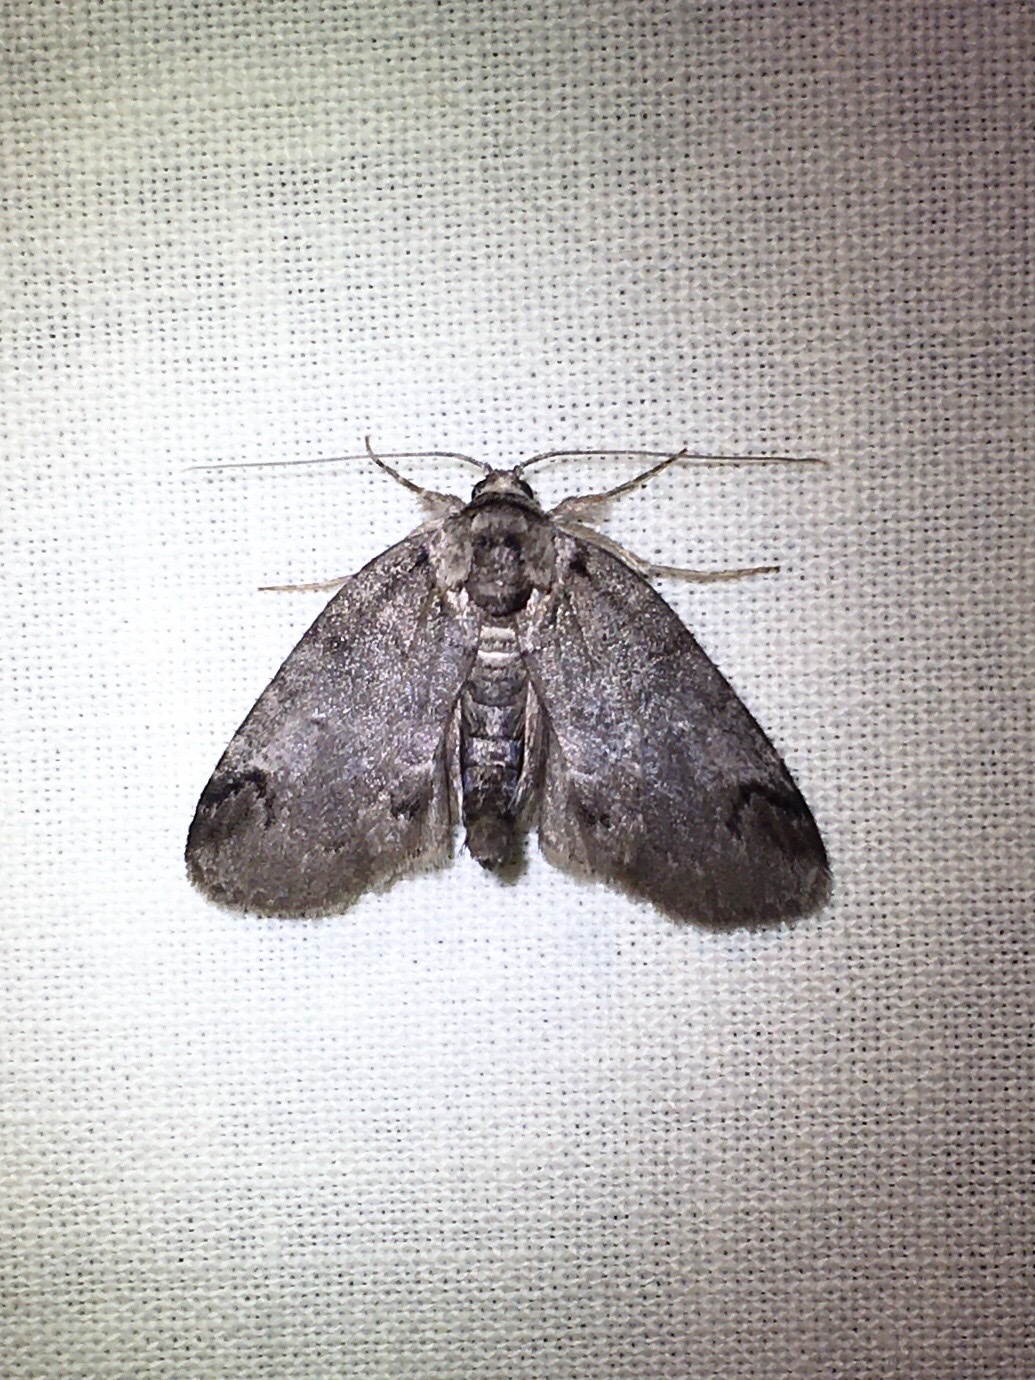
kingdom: Animalia
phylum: Arthropoda
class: Insecta
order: Lepidoptera
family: Nolidae
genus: Baileya
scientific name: Baileya dormitans
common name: Sleeping baileya moth
